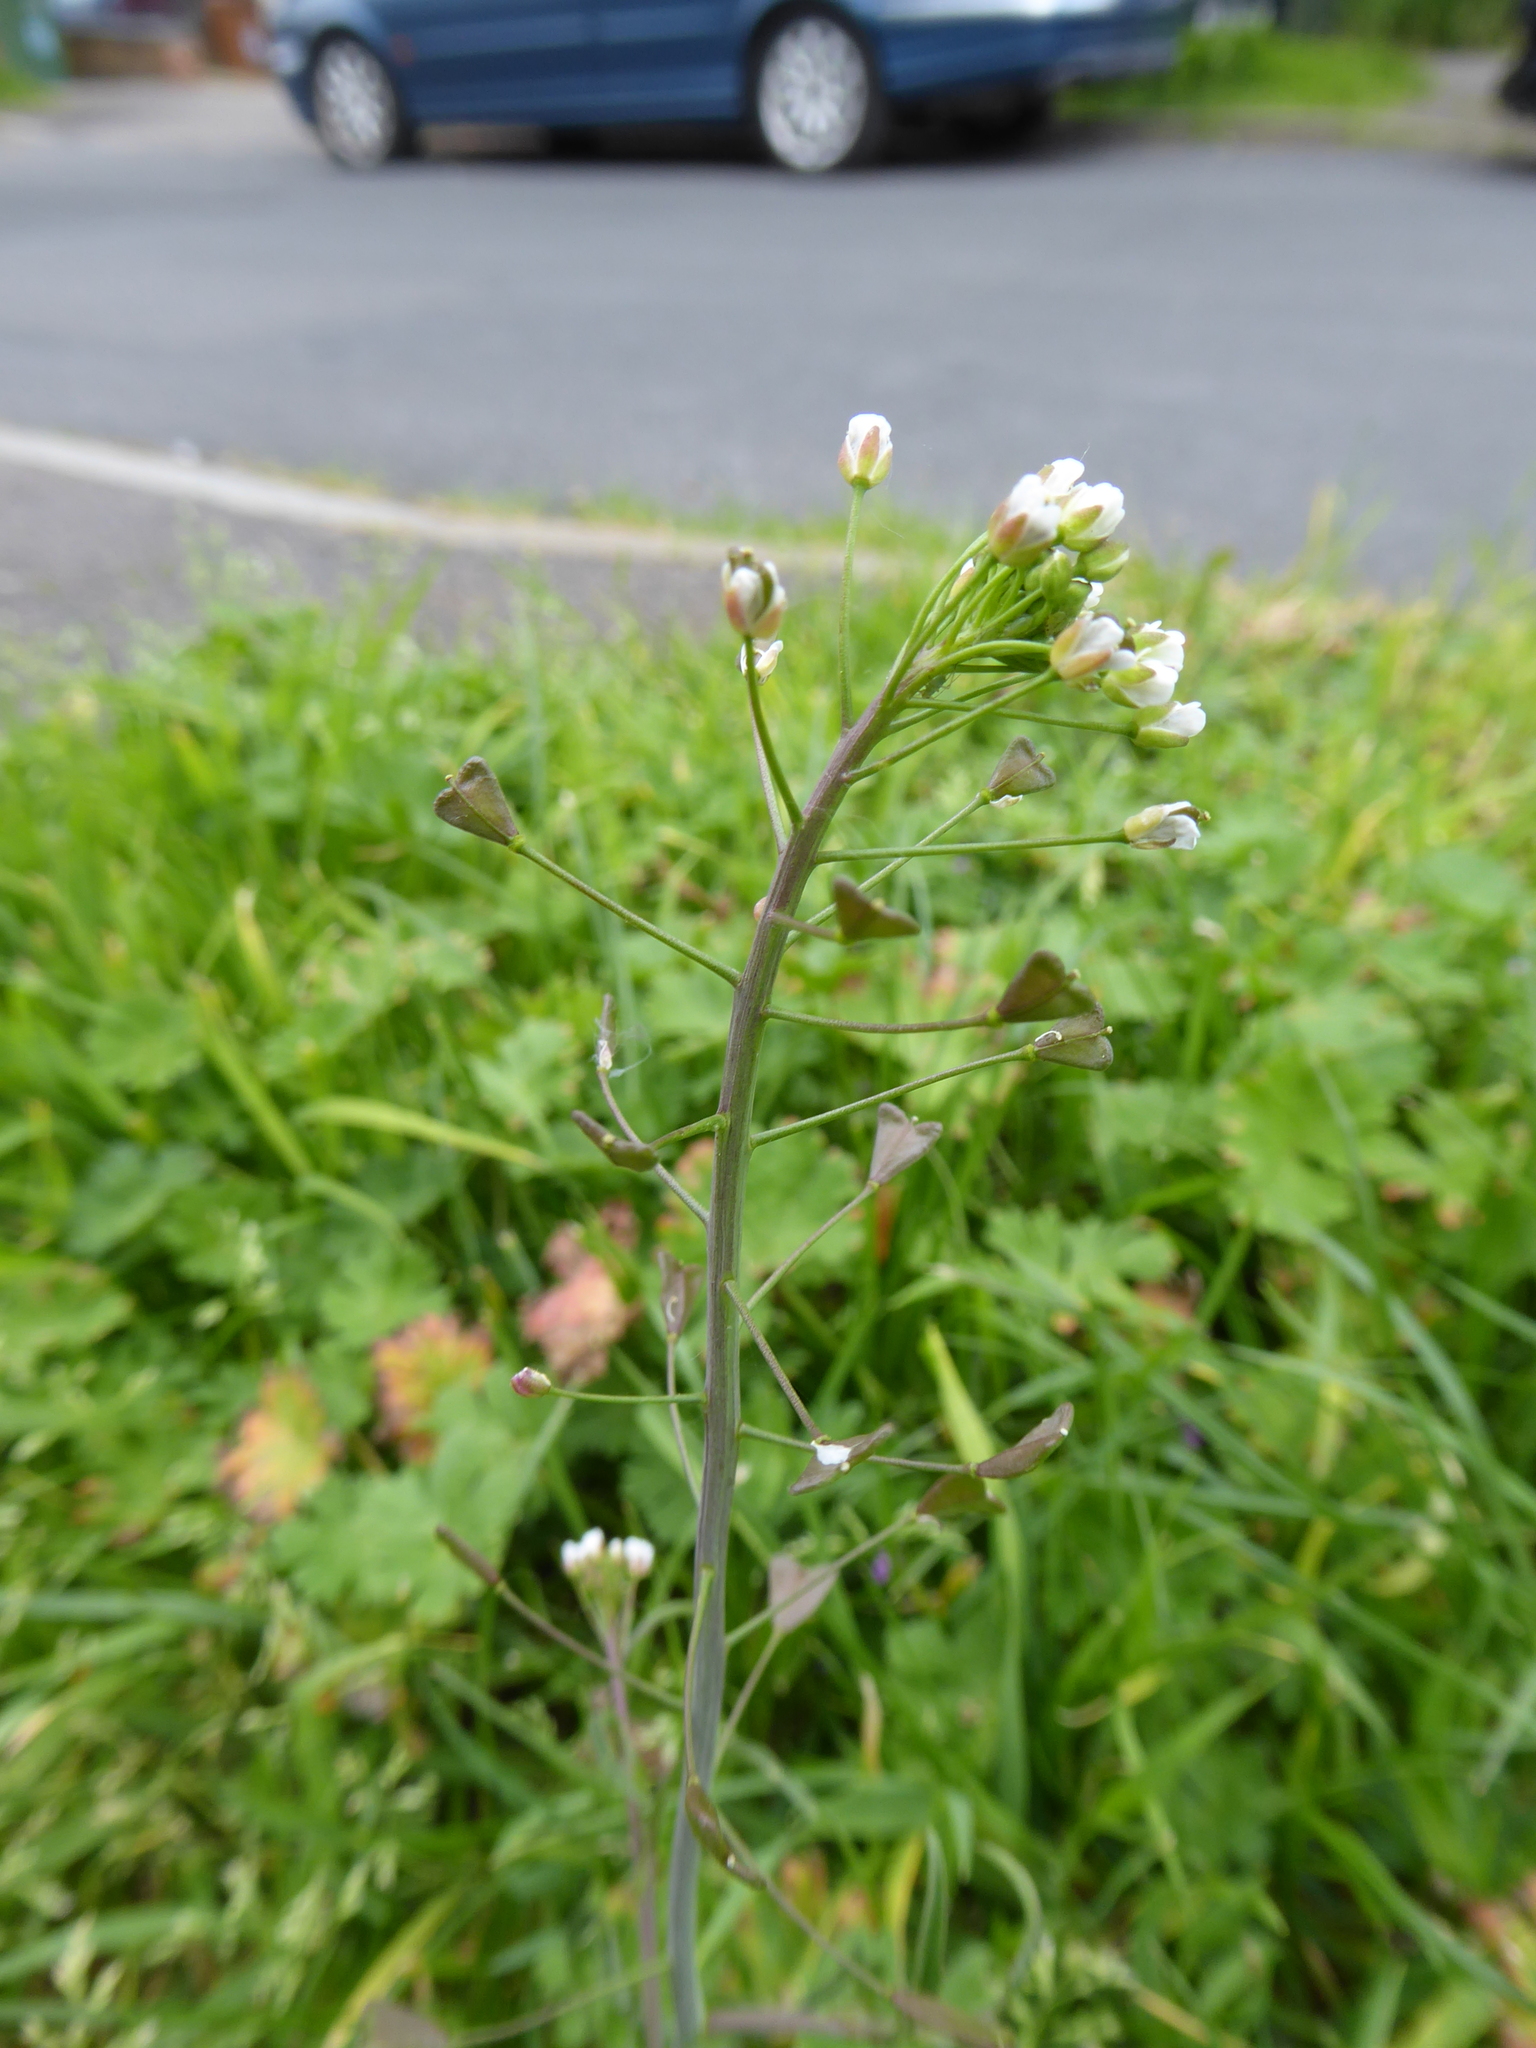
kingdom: Plantae
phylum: Tracheophyta
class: Magnoliopsida
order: Brassicales
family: Brassicaceae
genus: Capsella
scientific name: Capsella bursa-pastoris
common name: Shepherd's purse
